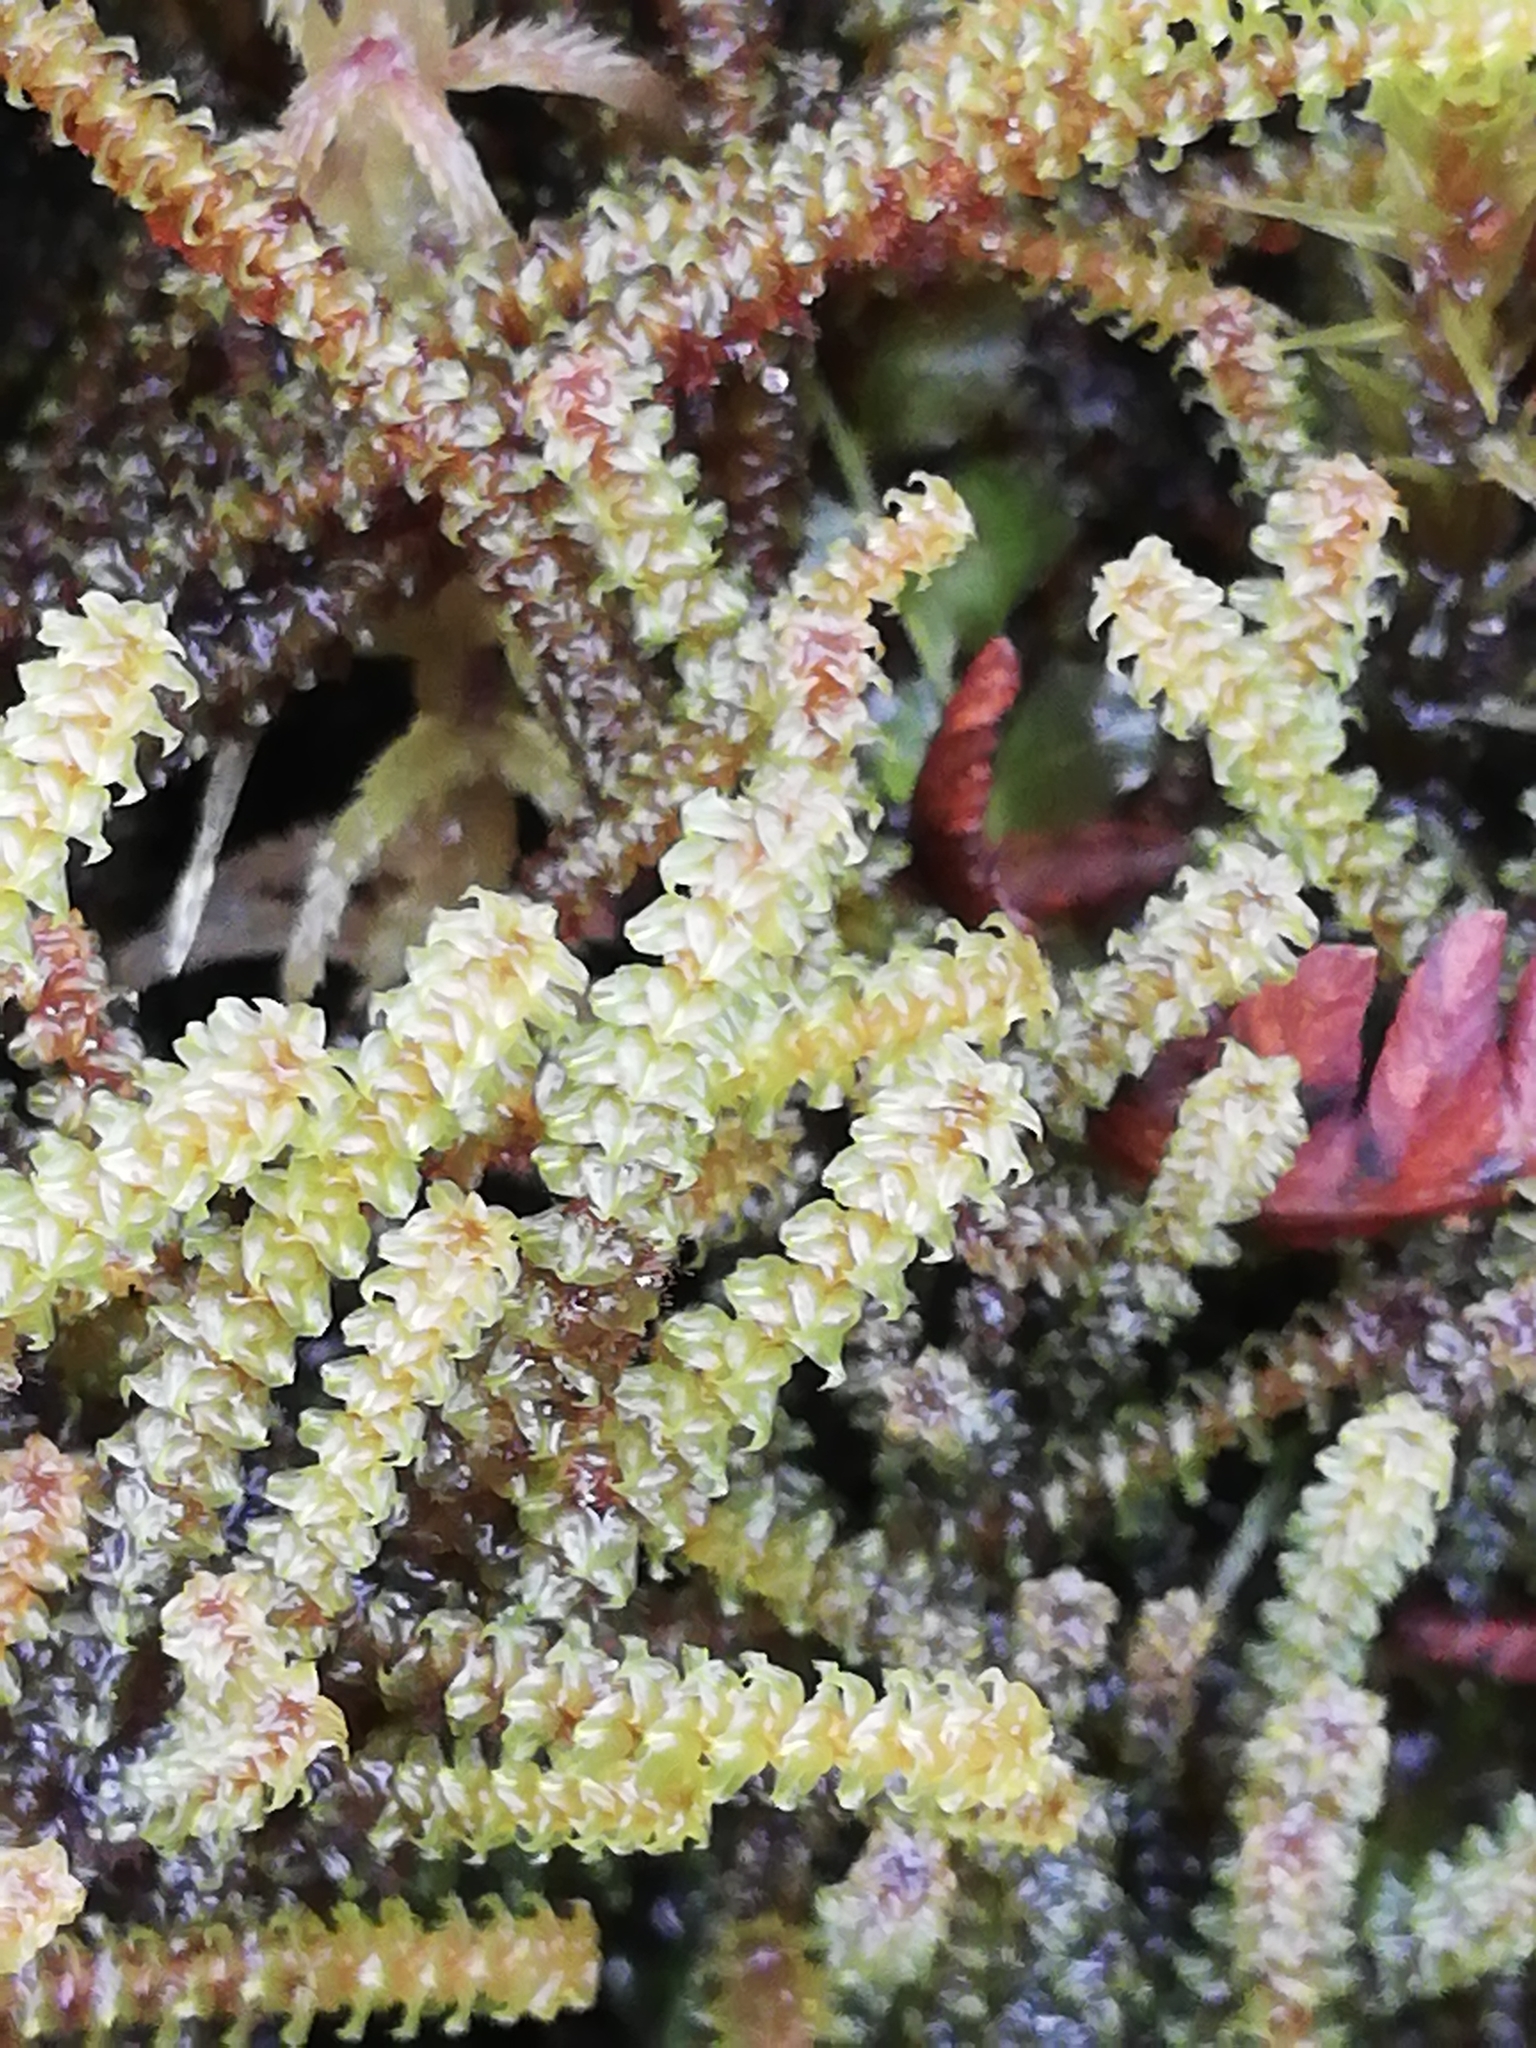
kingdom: Plantae
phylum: Bryophyta
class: Bryopsida
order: Splachnales
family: Meesiaceae
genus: Paludella
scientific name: Paludella squarrosa
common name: Tufted fen moss
